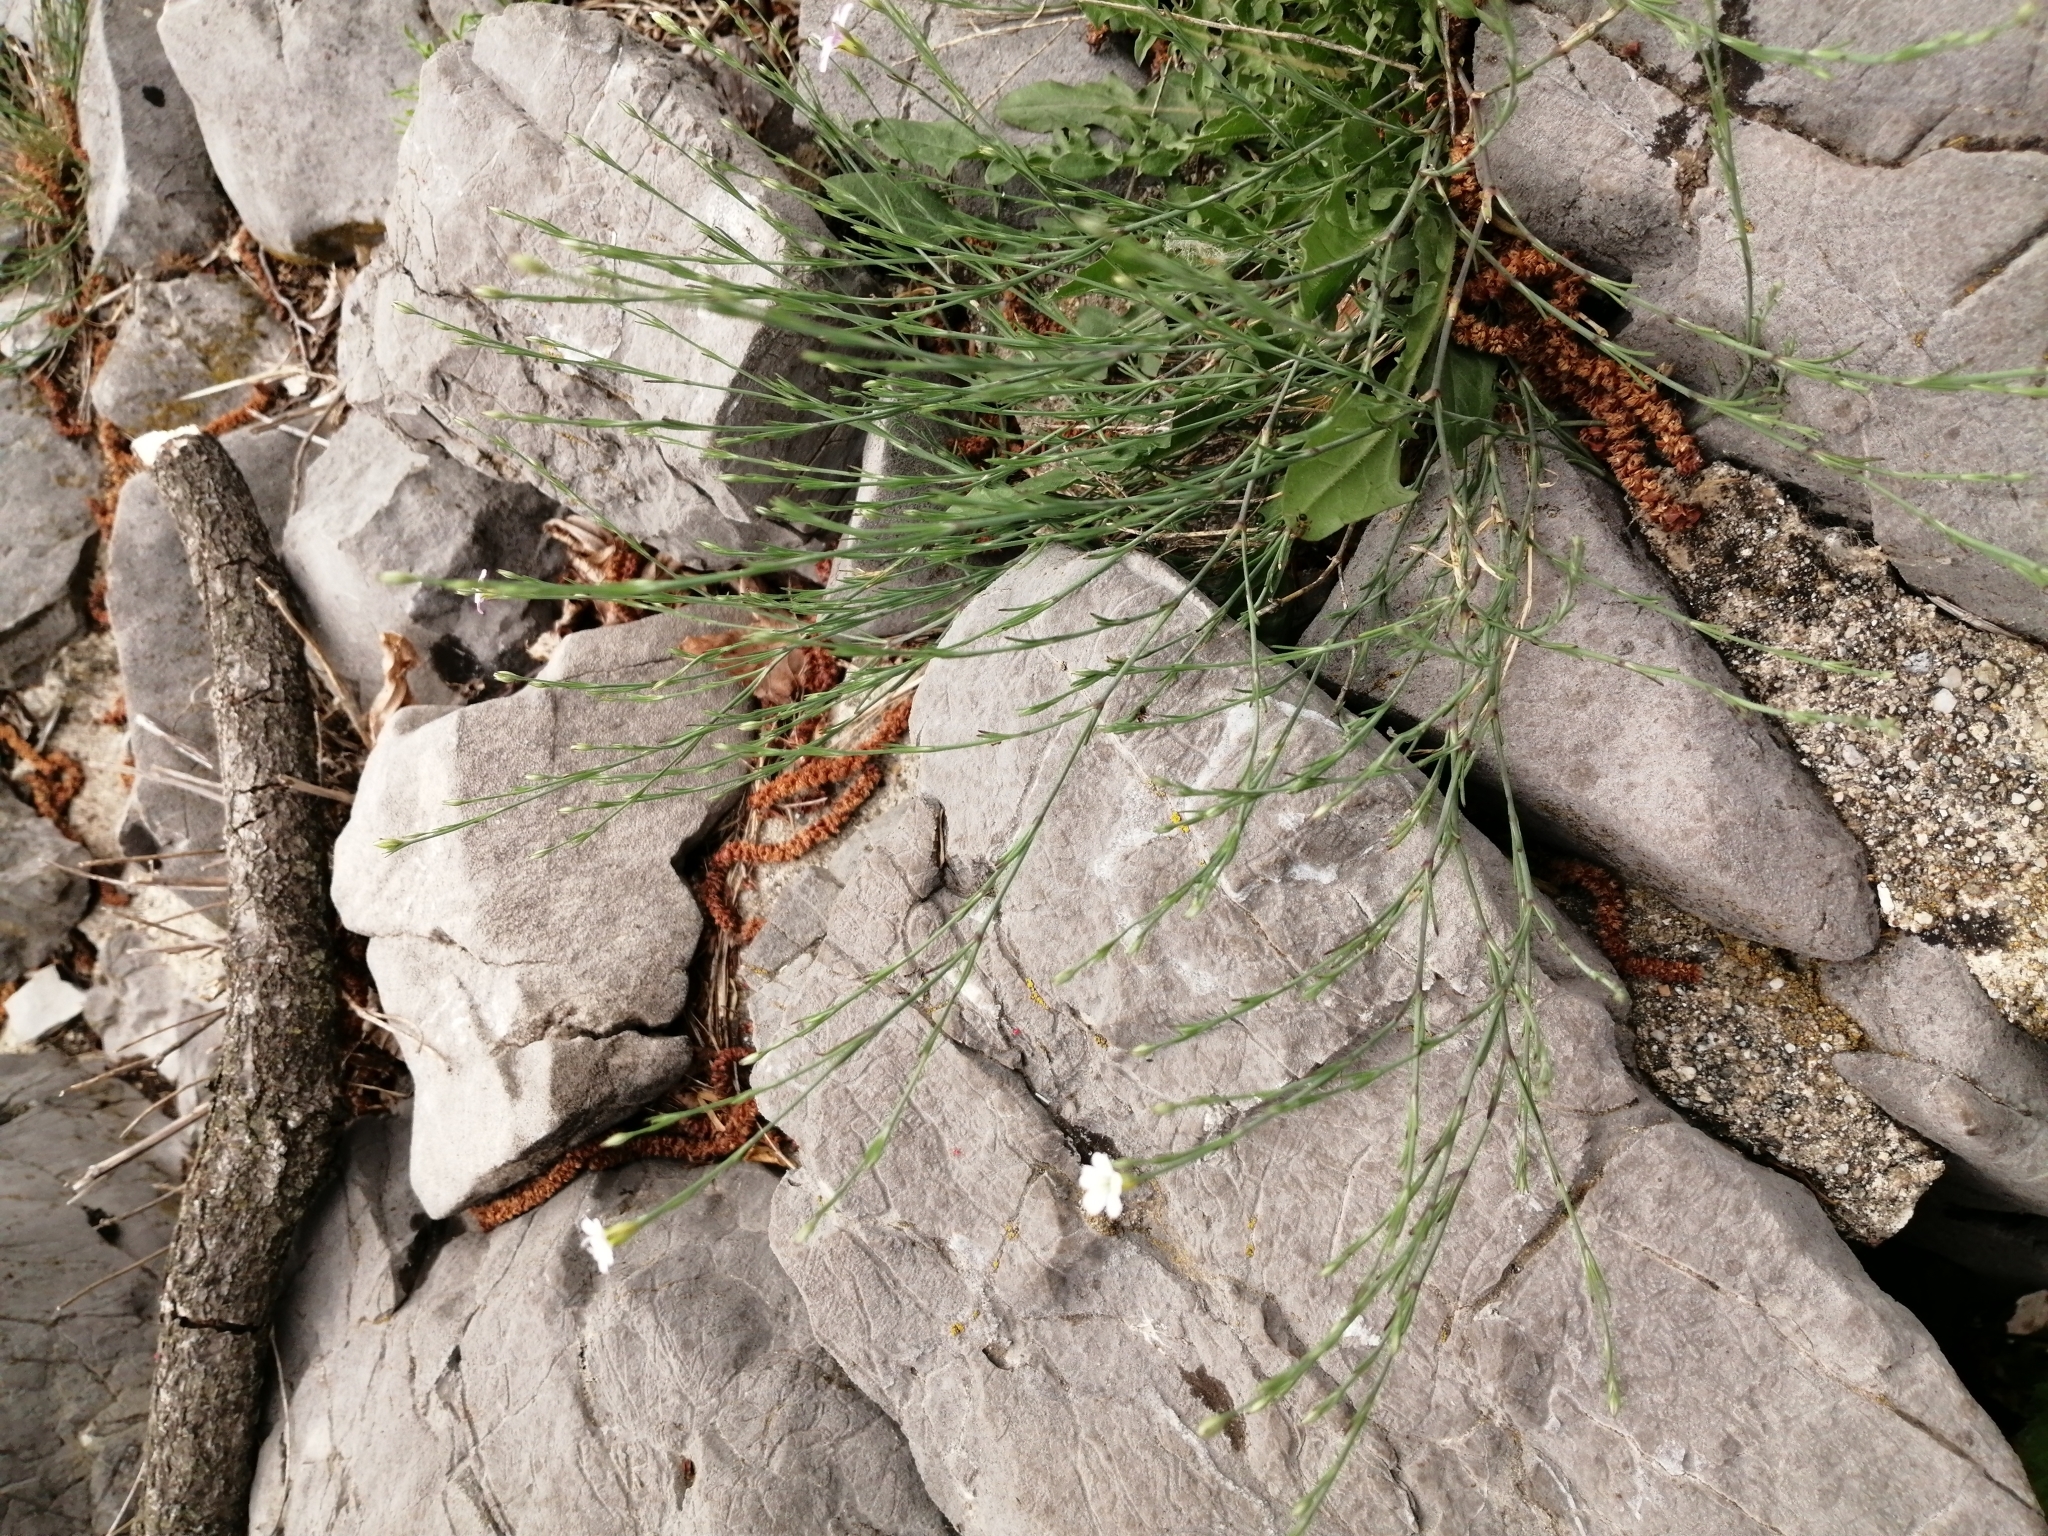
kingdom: Plantae
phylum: Tracheophyta
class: Magnoliopsida
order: Caryophyllales
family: Caryophyllaceae
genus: Petrorhagia
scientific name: Petrorhagia saxifraga
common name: Tunicflower
